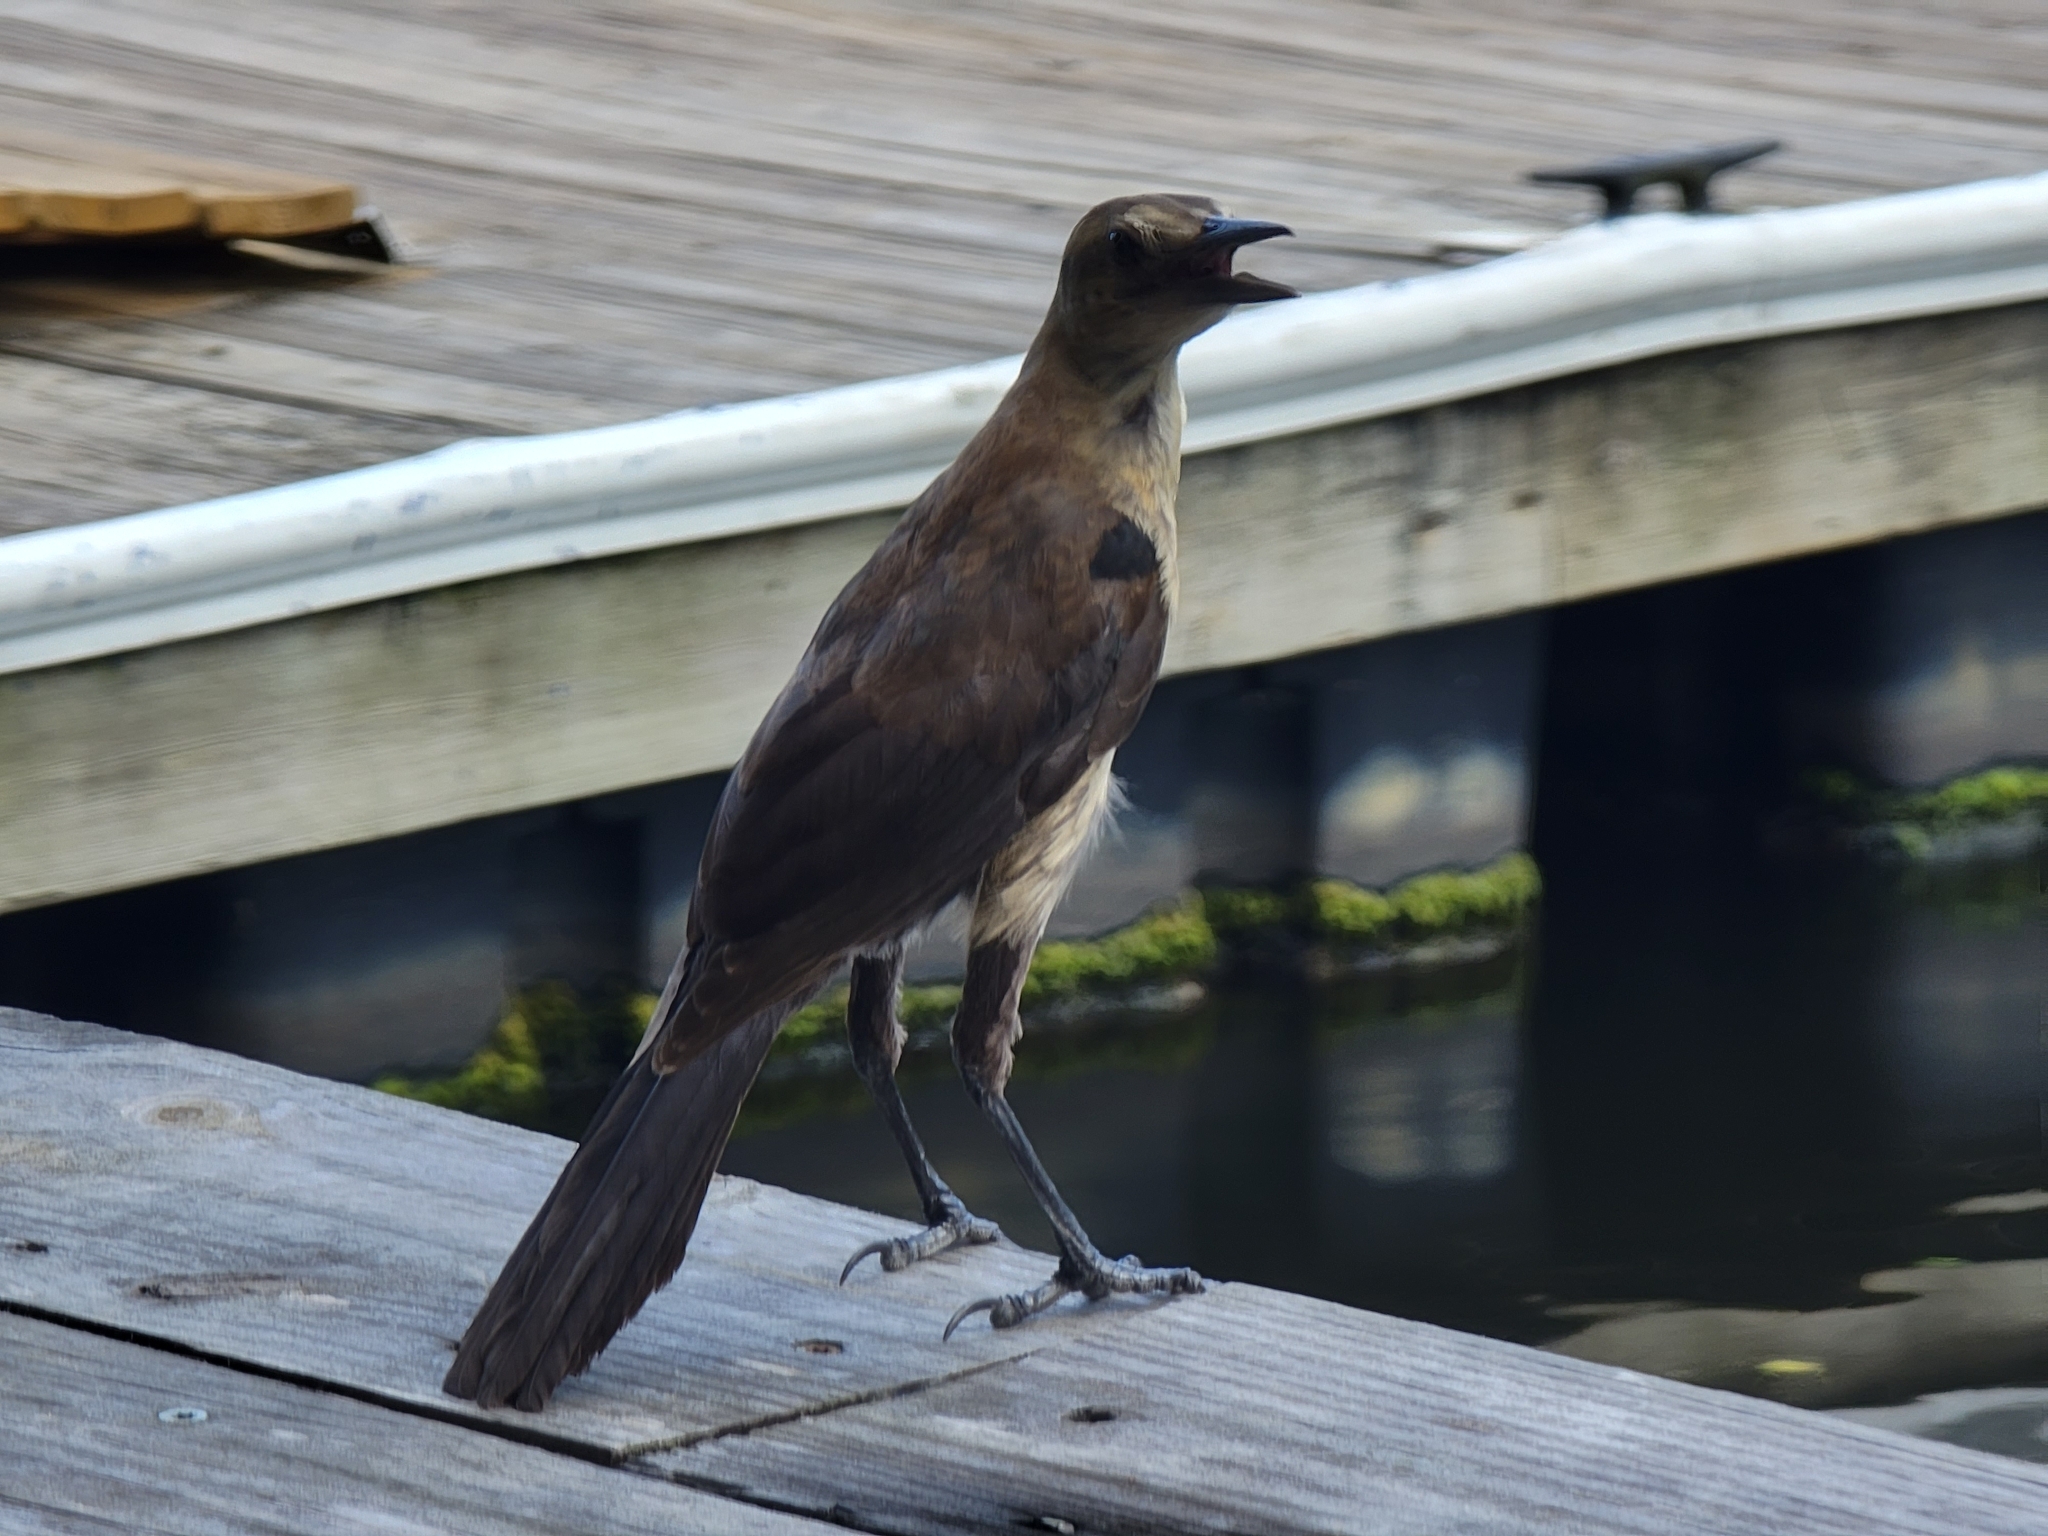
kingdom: Animalia
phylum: Chordata
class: Aves
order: Passeriformes
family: Icteridae
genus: Quiscalus
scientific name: Quiscalus major
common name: Boat-tailed grackle
